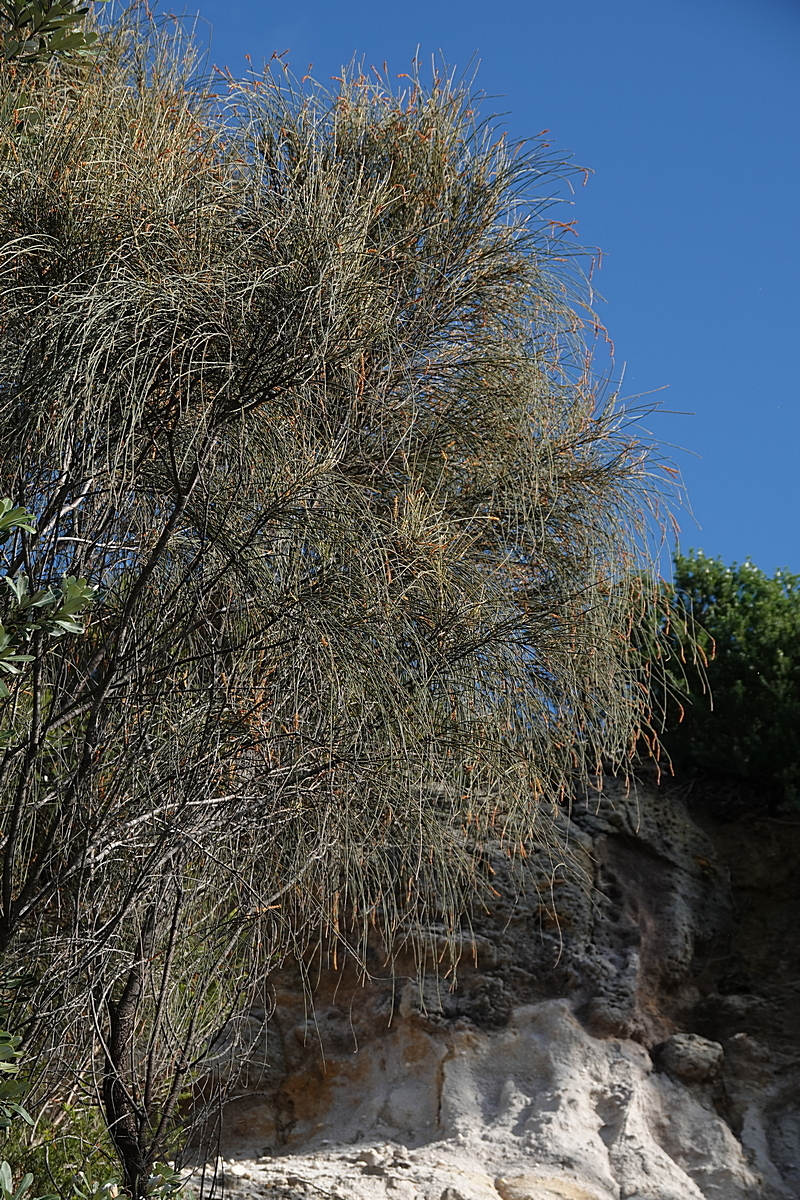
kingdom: Plantae
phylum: Tracheophyta
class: Magnoliopsida
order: Fagales
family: Casuarinaceae
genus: Allocasuarina
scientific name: Allocasuarina verticillata
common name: Drooping she-oak
